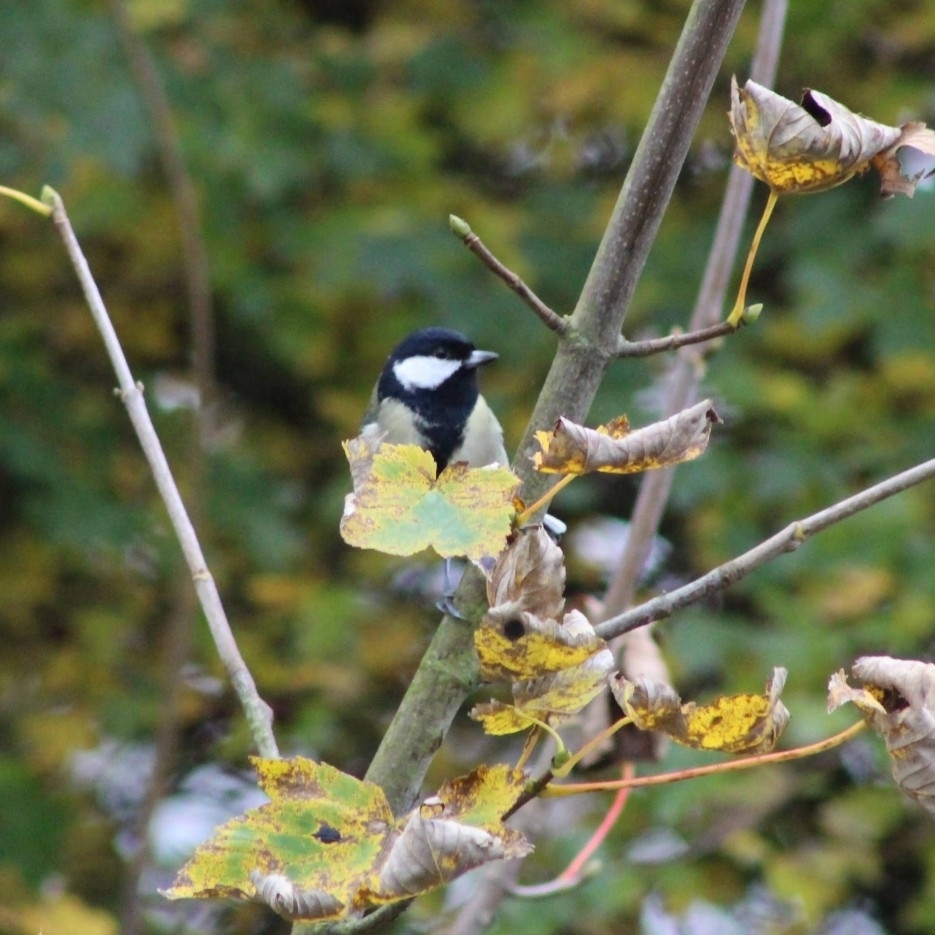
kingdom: Animalia
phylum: Chordata
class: Aves
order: Passeriformes
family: Paridae
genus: Parus
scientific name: Parus major
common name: Great tit
